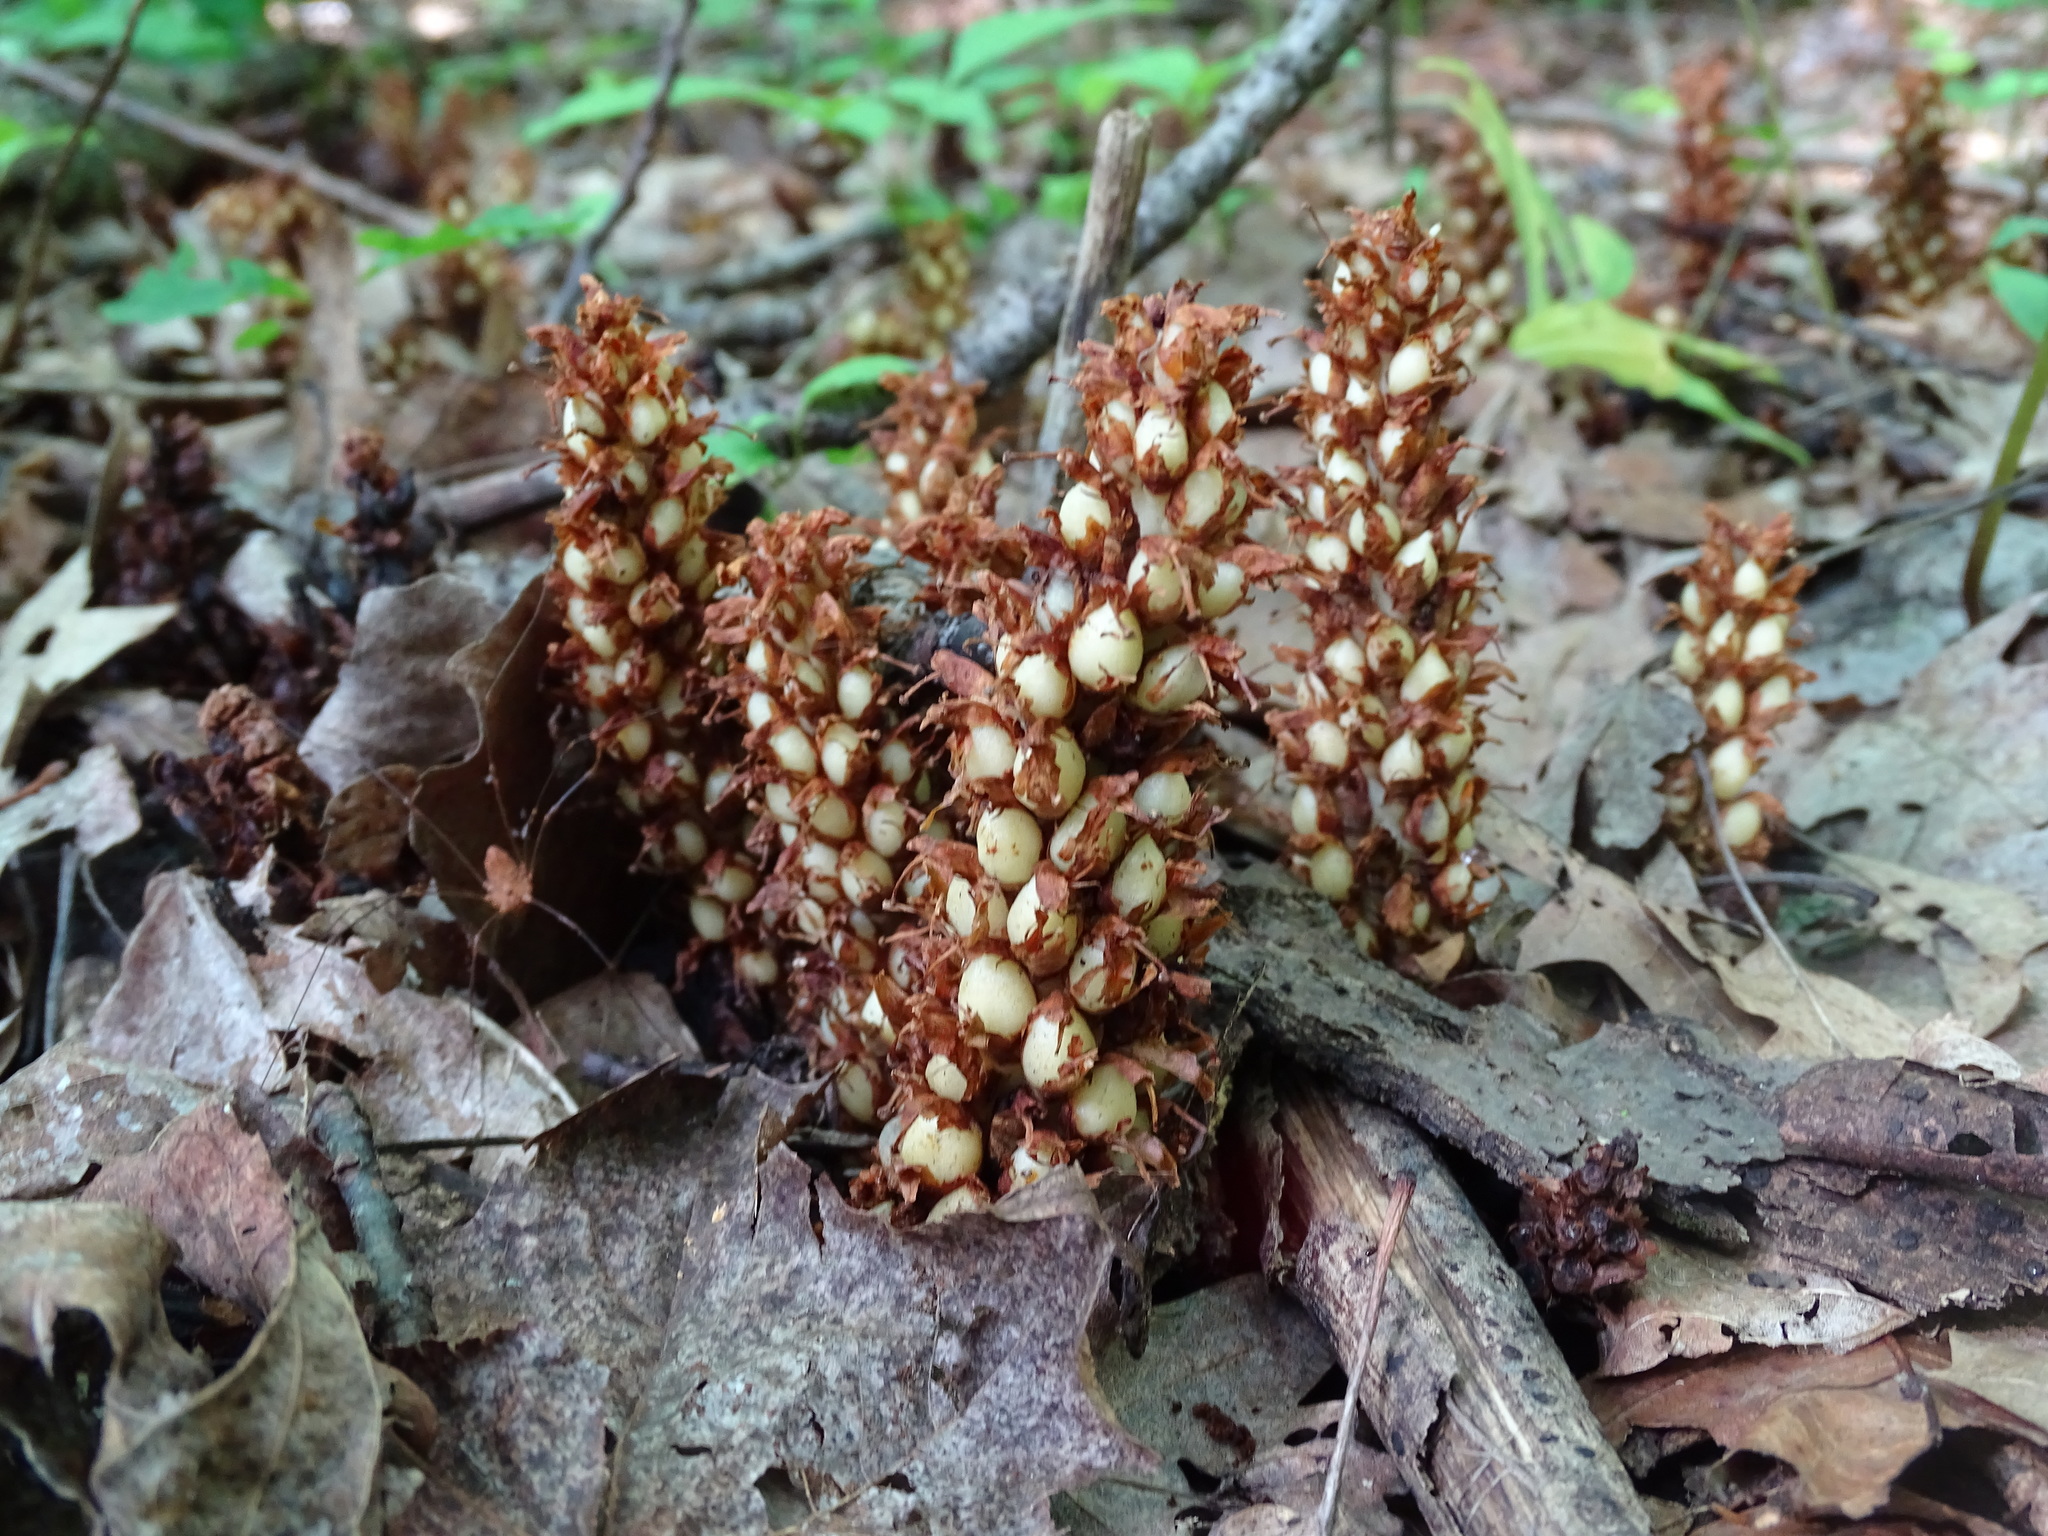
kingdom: Plantae
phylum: Tracheophyta
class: Magnoliopsida
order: Lamiales
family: Orobanchaceae
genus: Conopholis
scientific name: Conopholis americana
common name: American cancer-root
